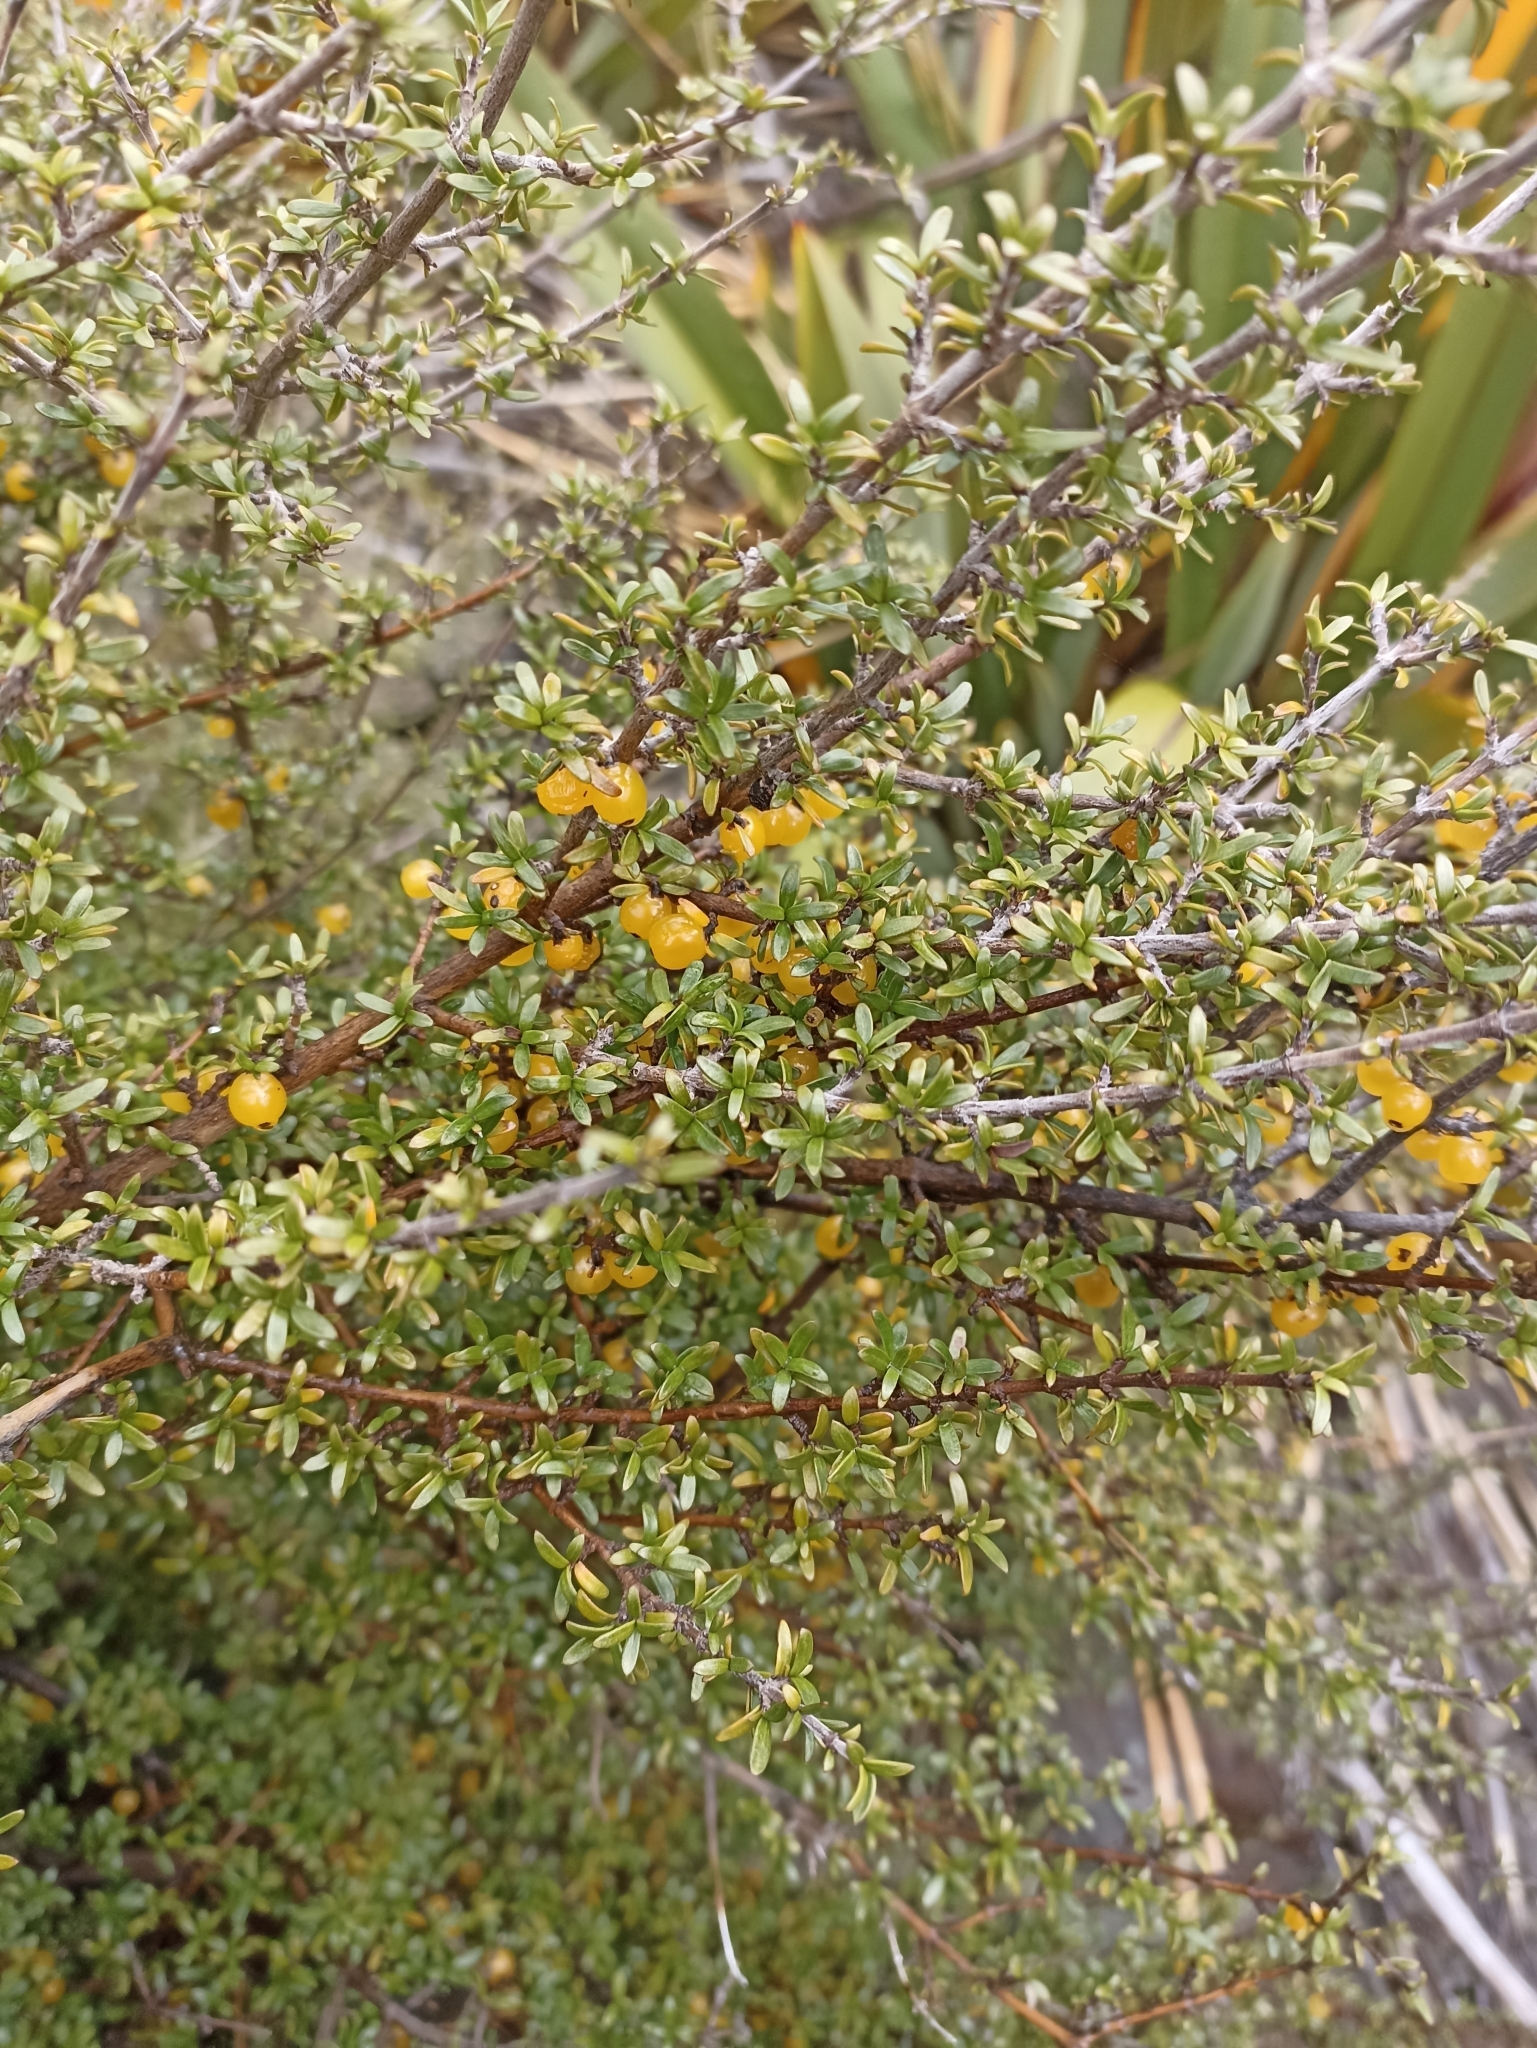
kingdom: Plantae
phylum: Tracheophyta
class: Magnoliopsida
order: Gentianales
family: Rubiaceae
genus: Coprosma
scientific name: Coprosma cheesemanii
